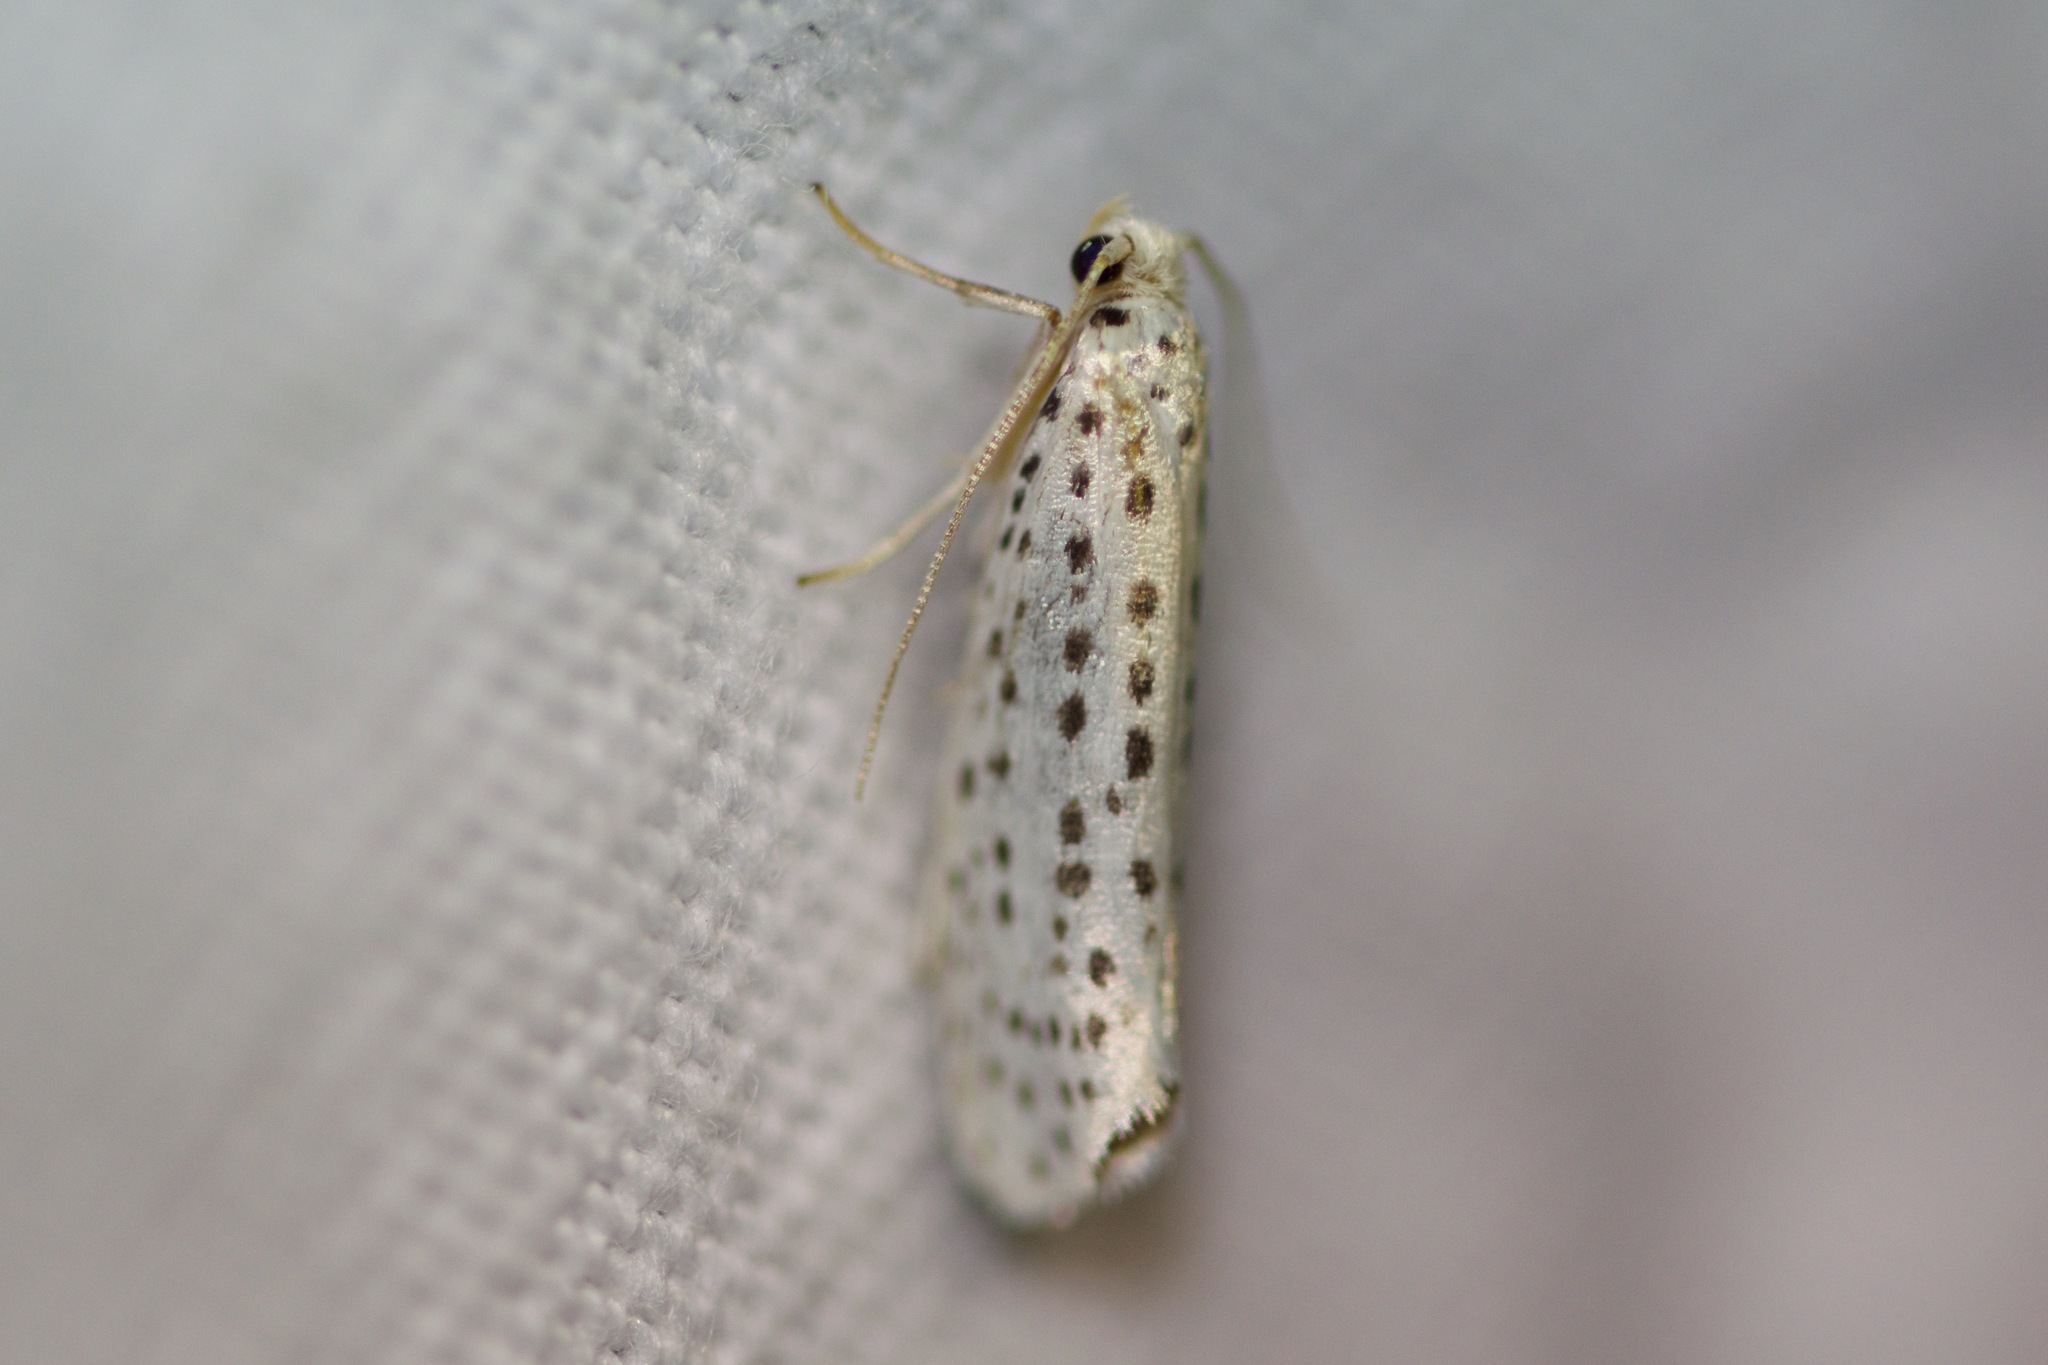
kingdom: Animalia
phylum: Arthropoda
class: Insecta
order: Lepidoptera
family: Yponomeutidae
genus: Yponomeuta
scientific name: Yponomeuta multipunctella
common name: American ermine moth
